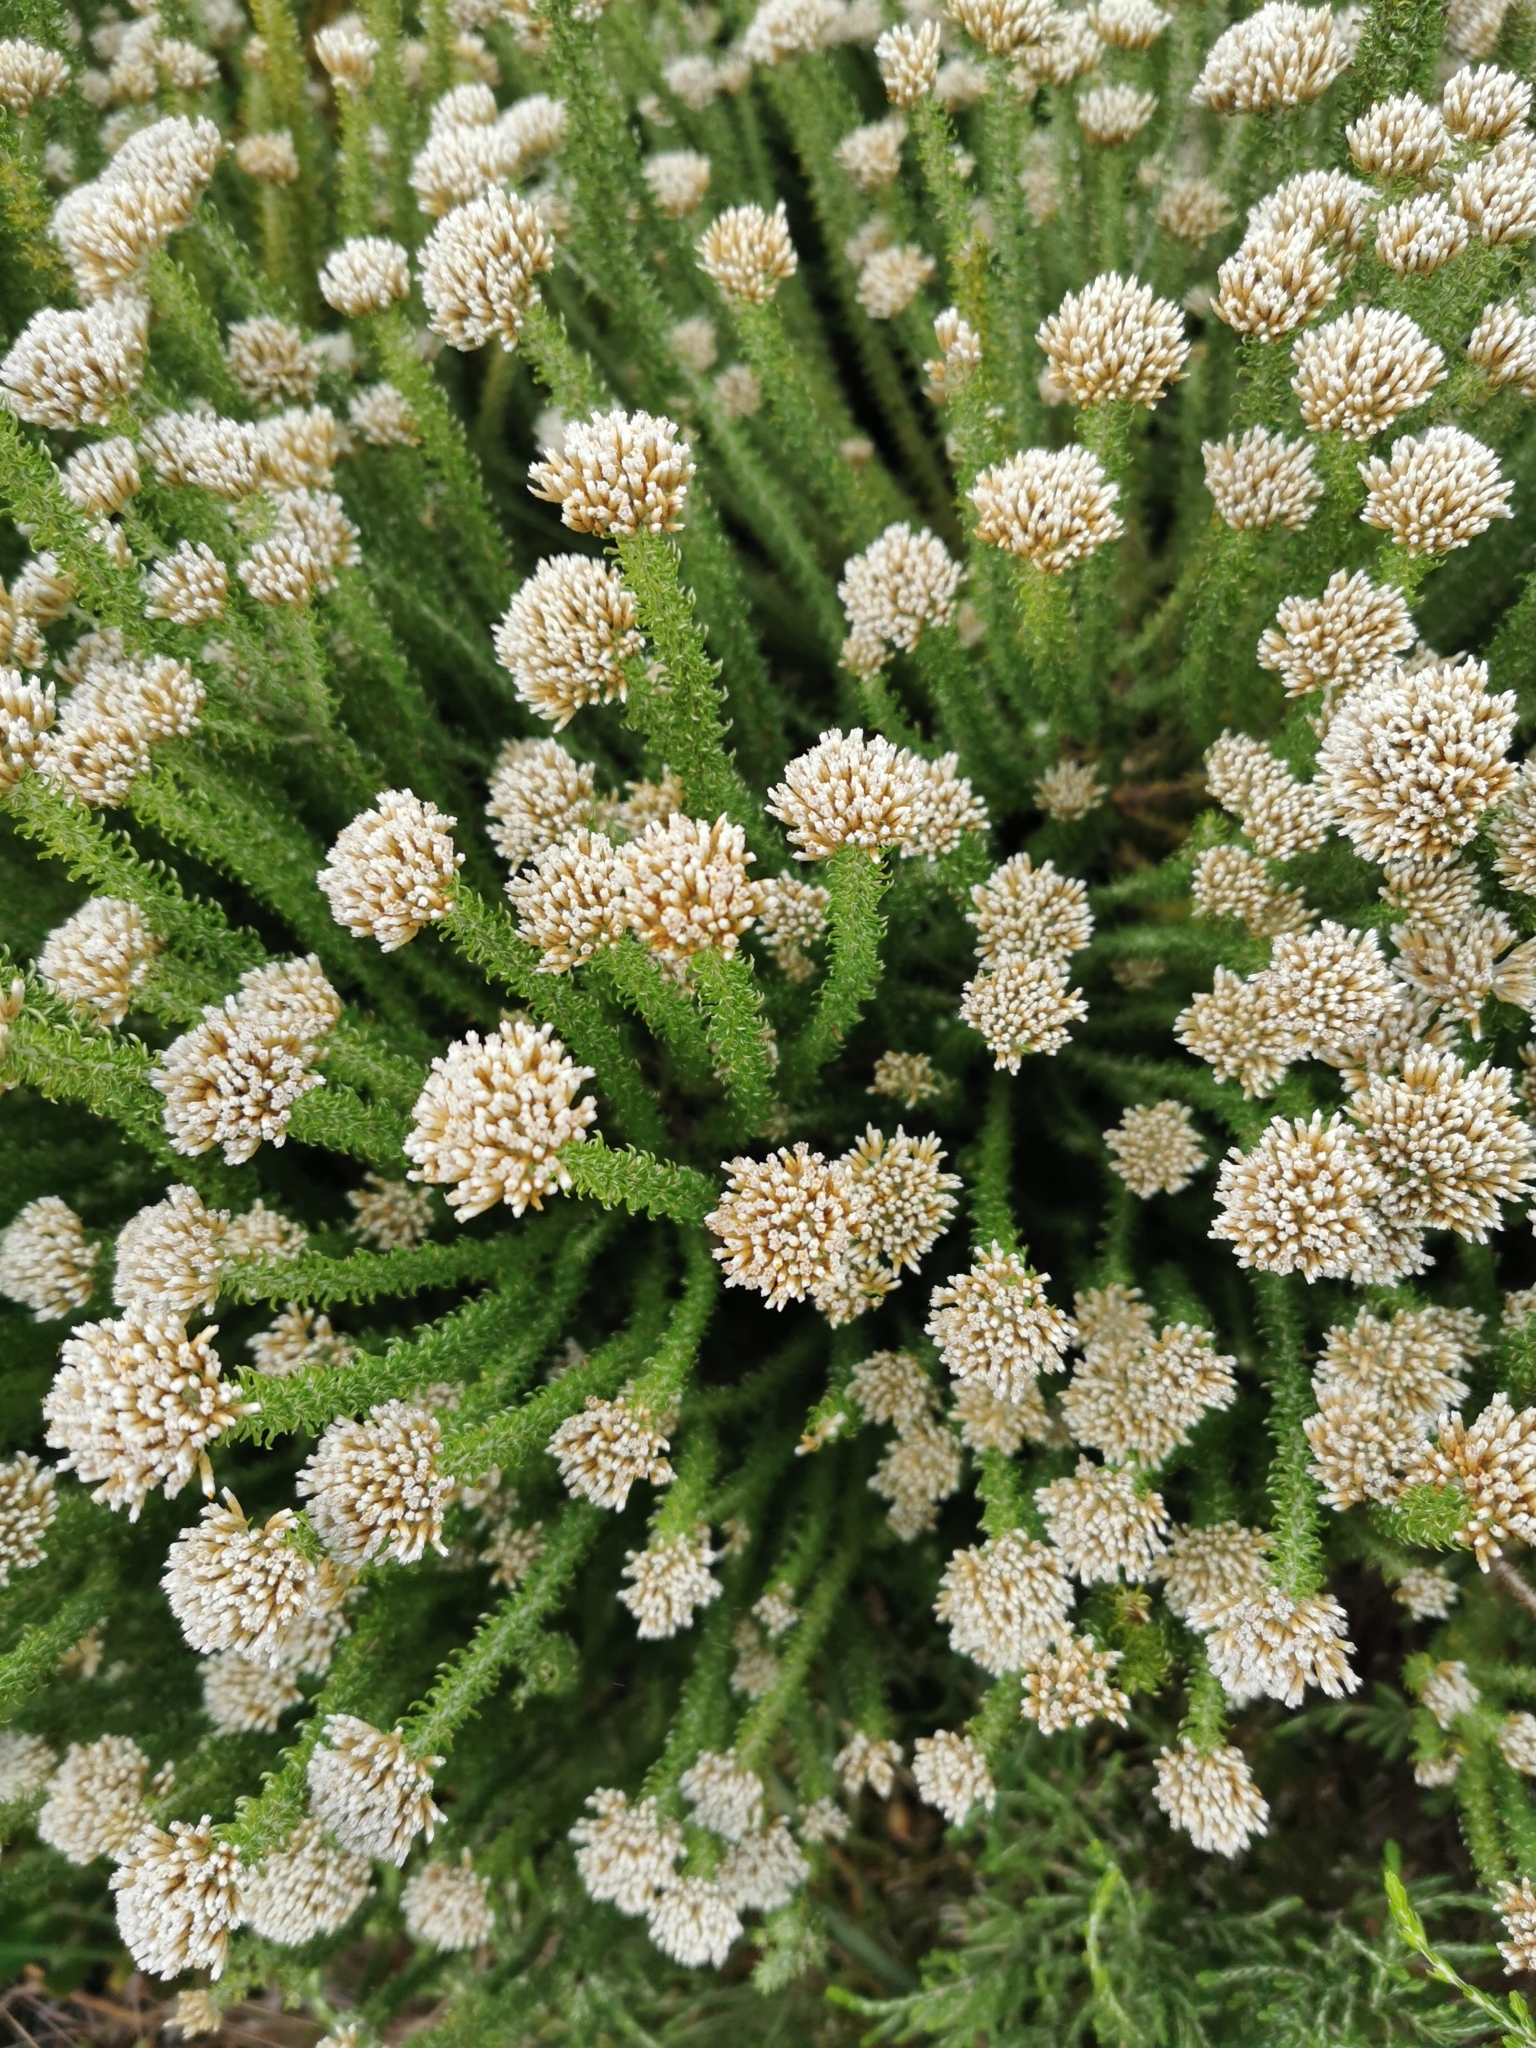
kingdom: Plantae
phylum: Tracheophyta
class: Magnoliopsida
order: Asterales
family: Asteraceae
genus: Metalasia
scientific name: Metalasia muricata
